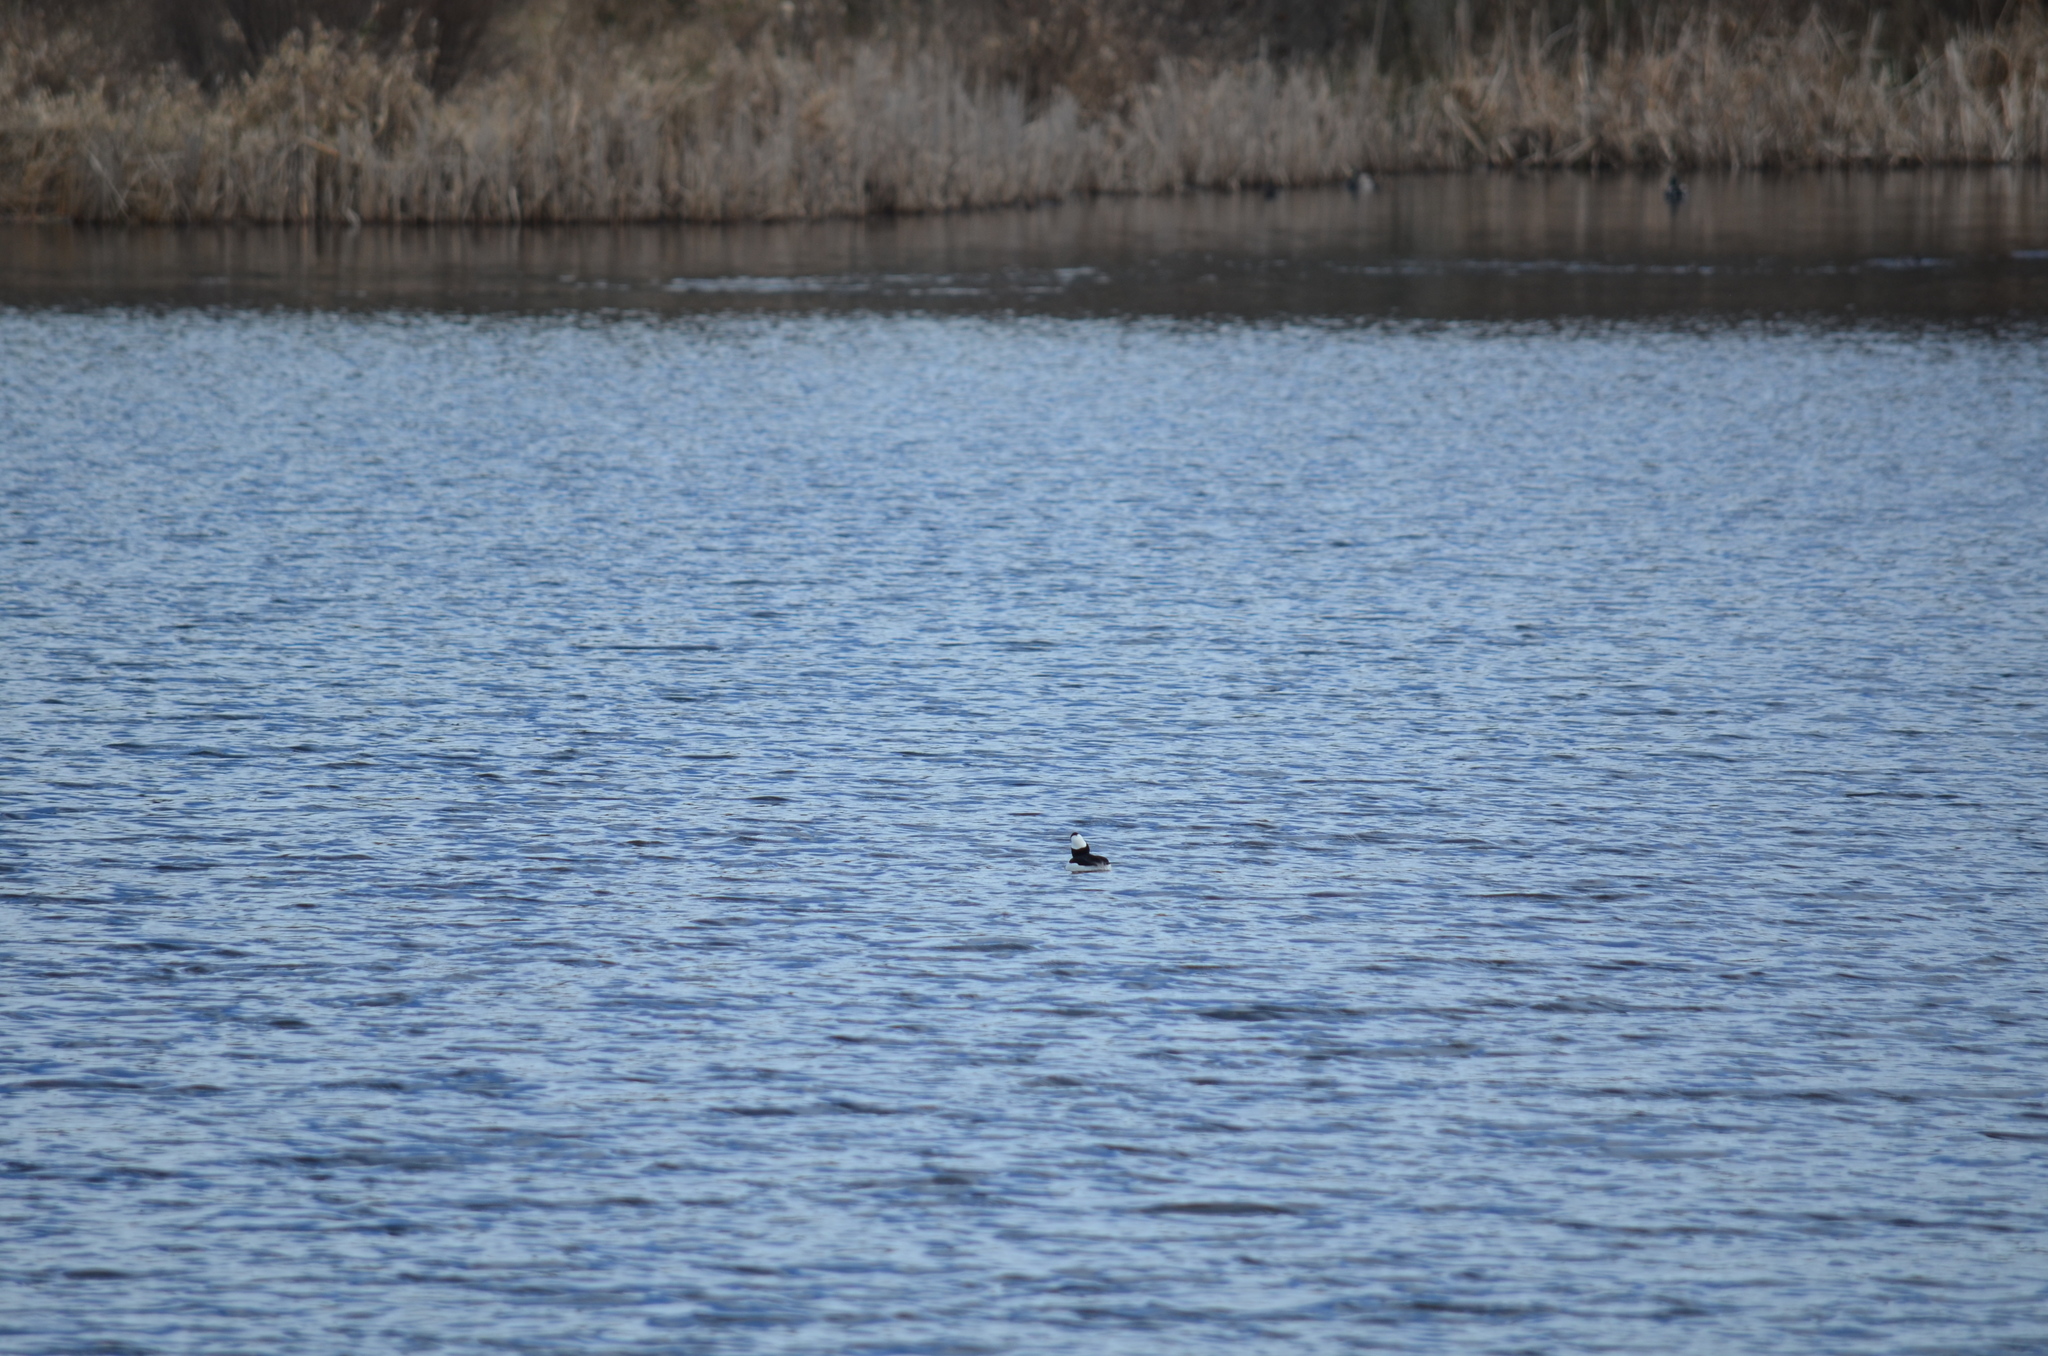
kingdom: Animalia
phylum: Chordata
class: Aves
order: Anseriformes
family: Anatidae
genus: Bucephala
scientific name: Bucephala albeola
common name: Bufflehead
